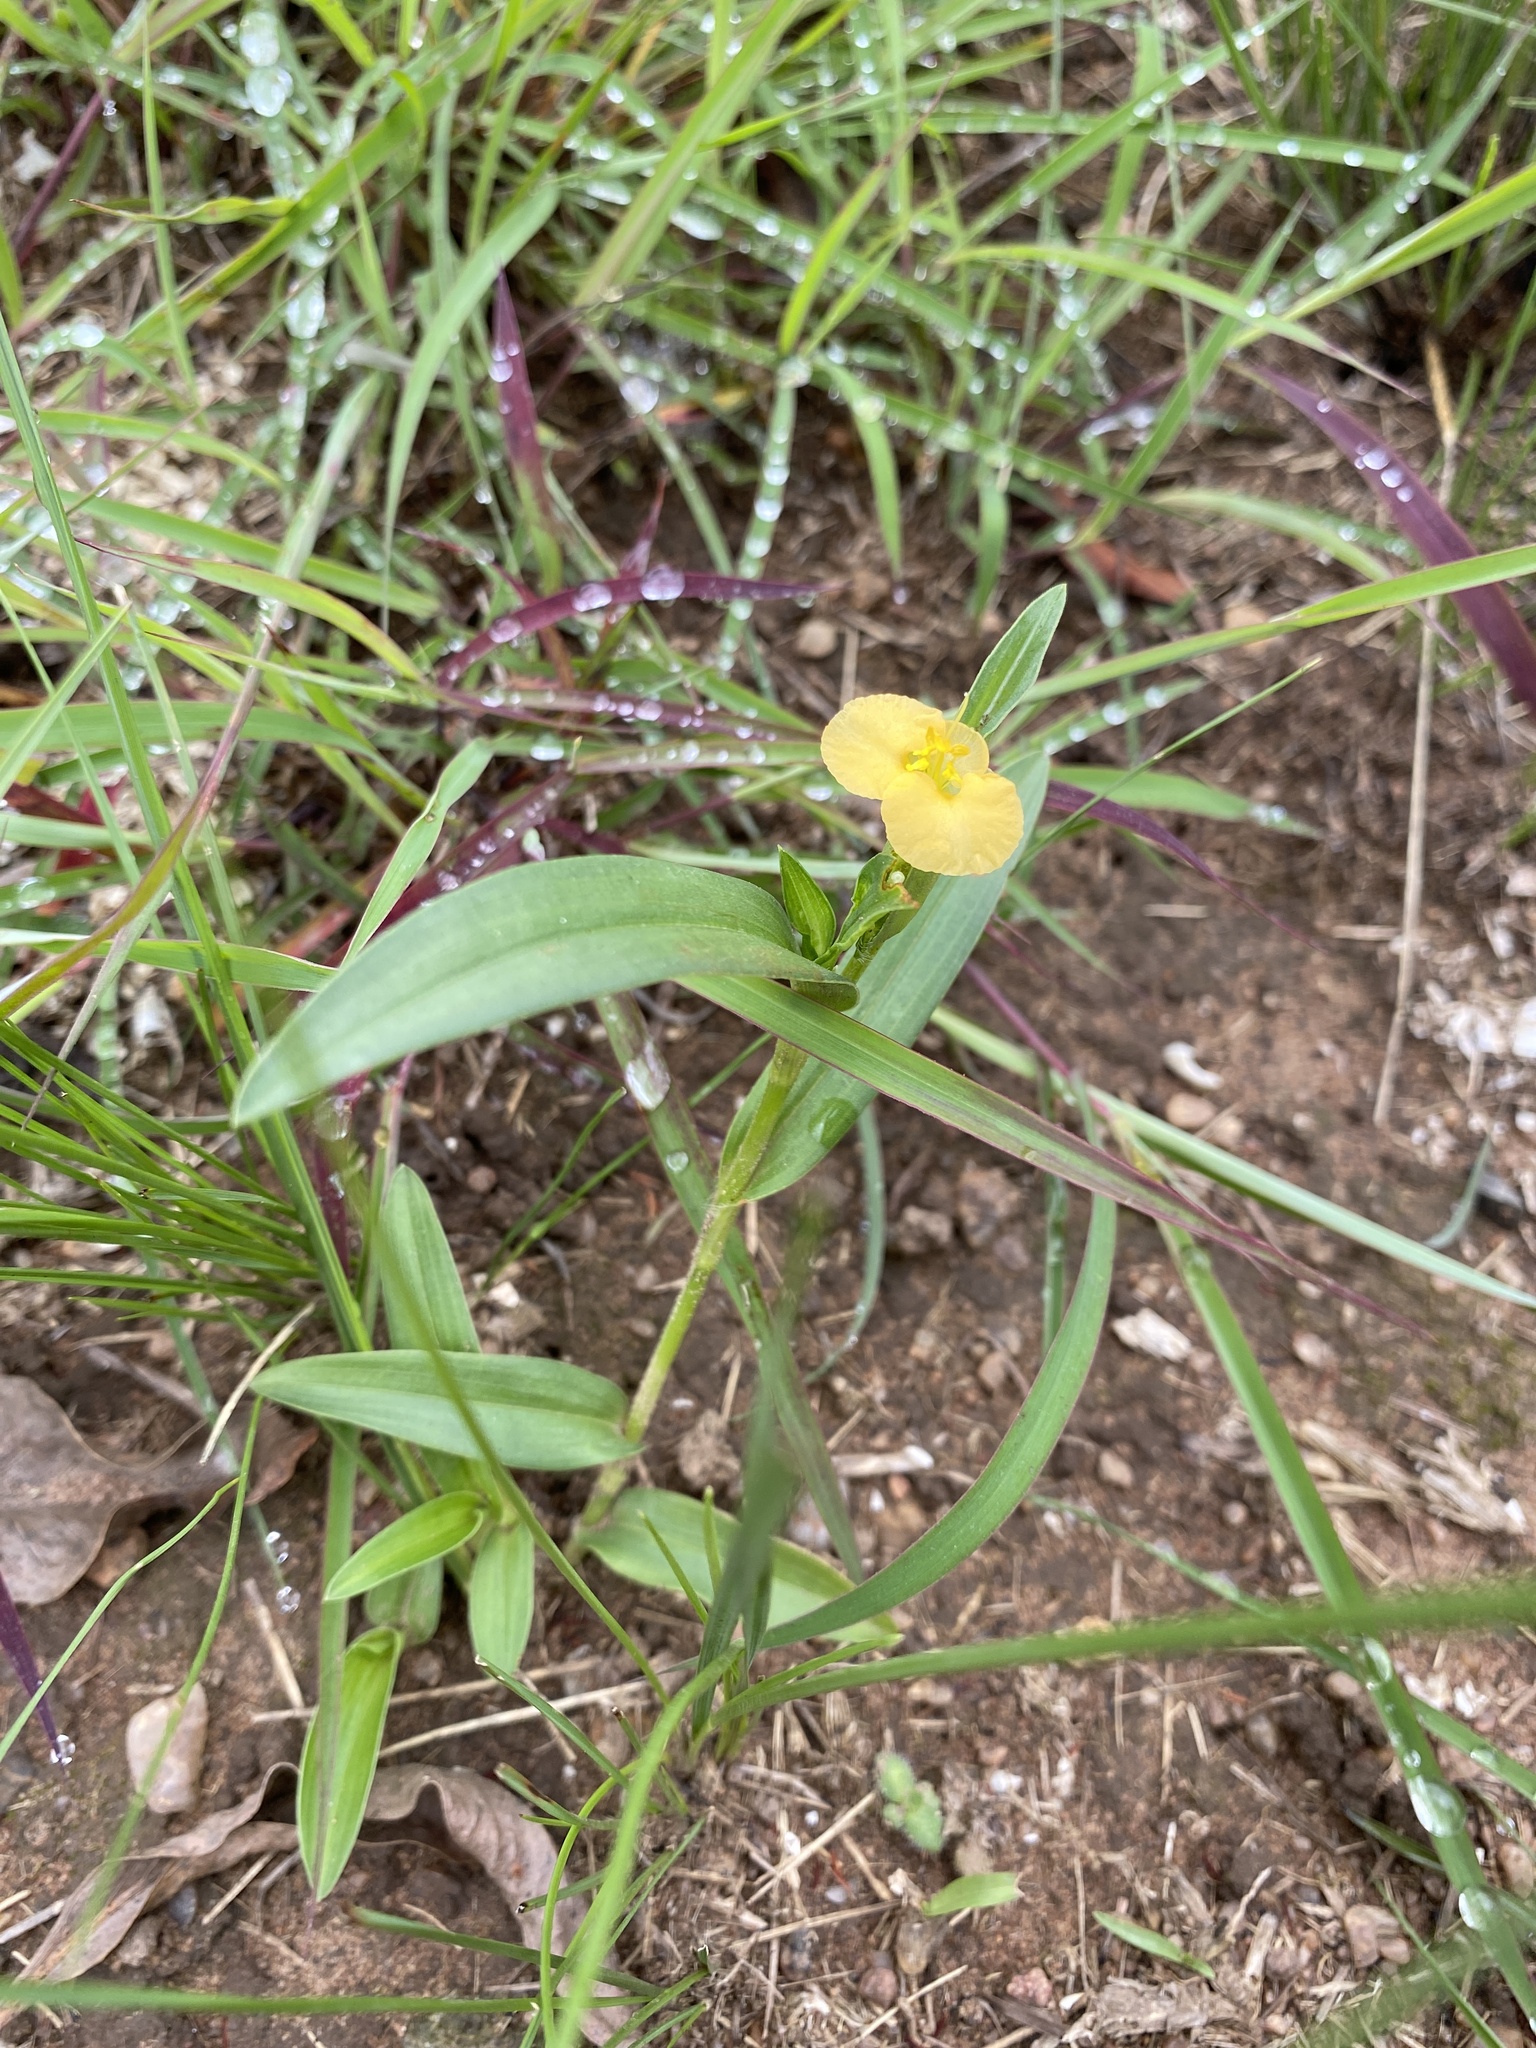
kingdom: Plantae
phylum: Tracheophyta
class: Liliopsida
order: Commelinales
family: Commelinaceae
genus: Commelina
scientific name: Commelina africana
